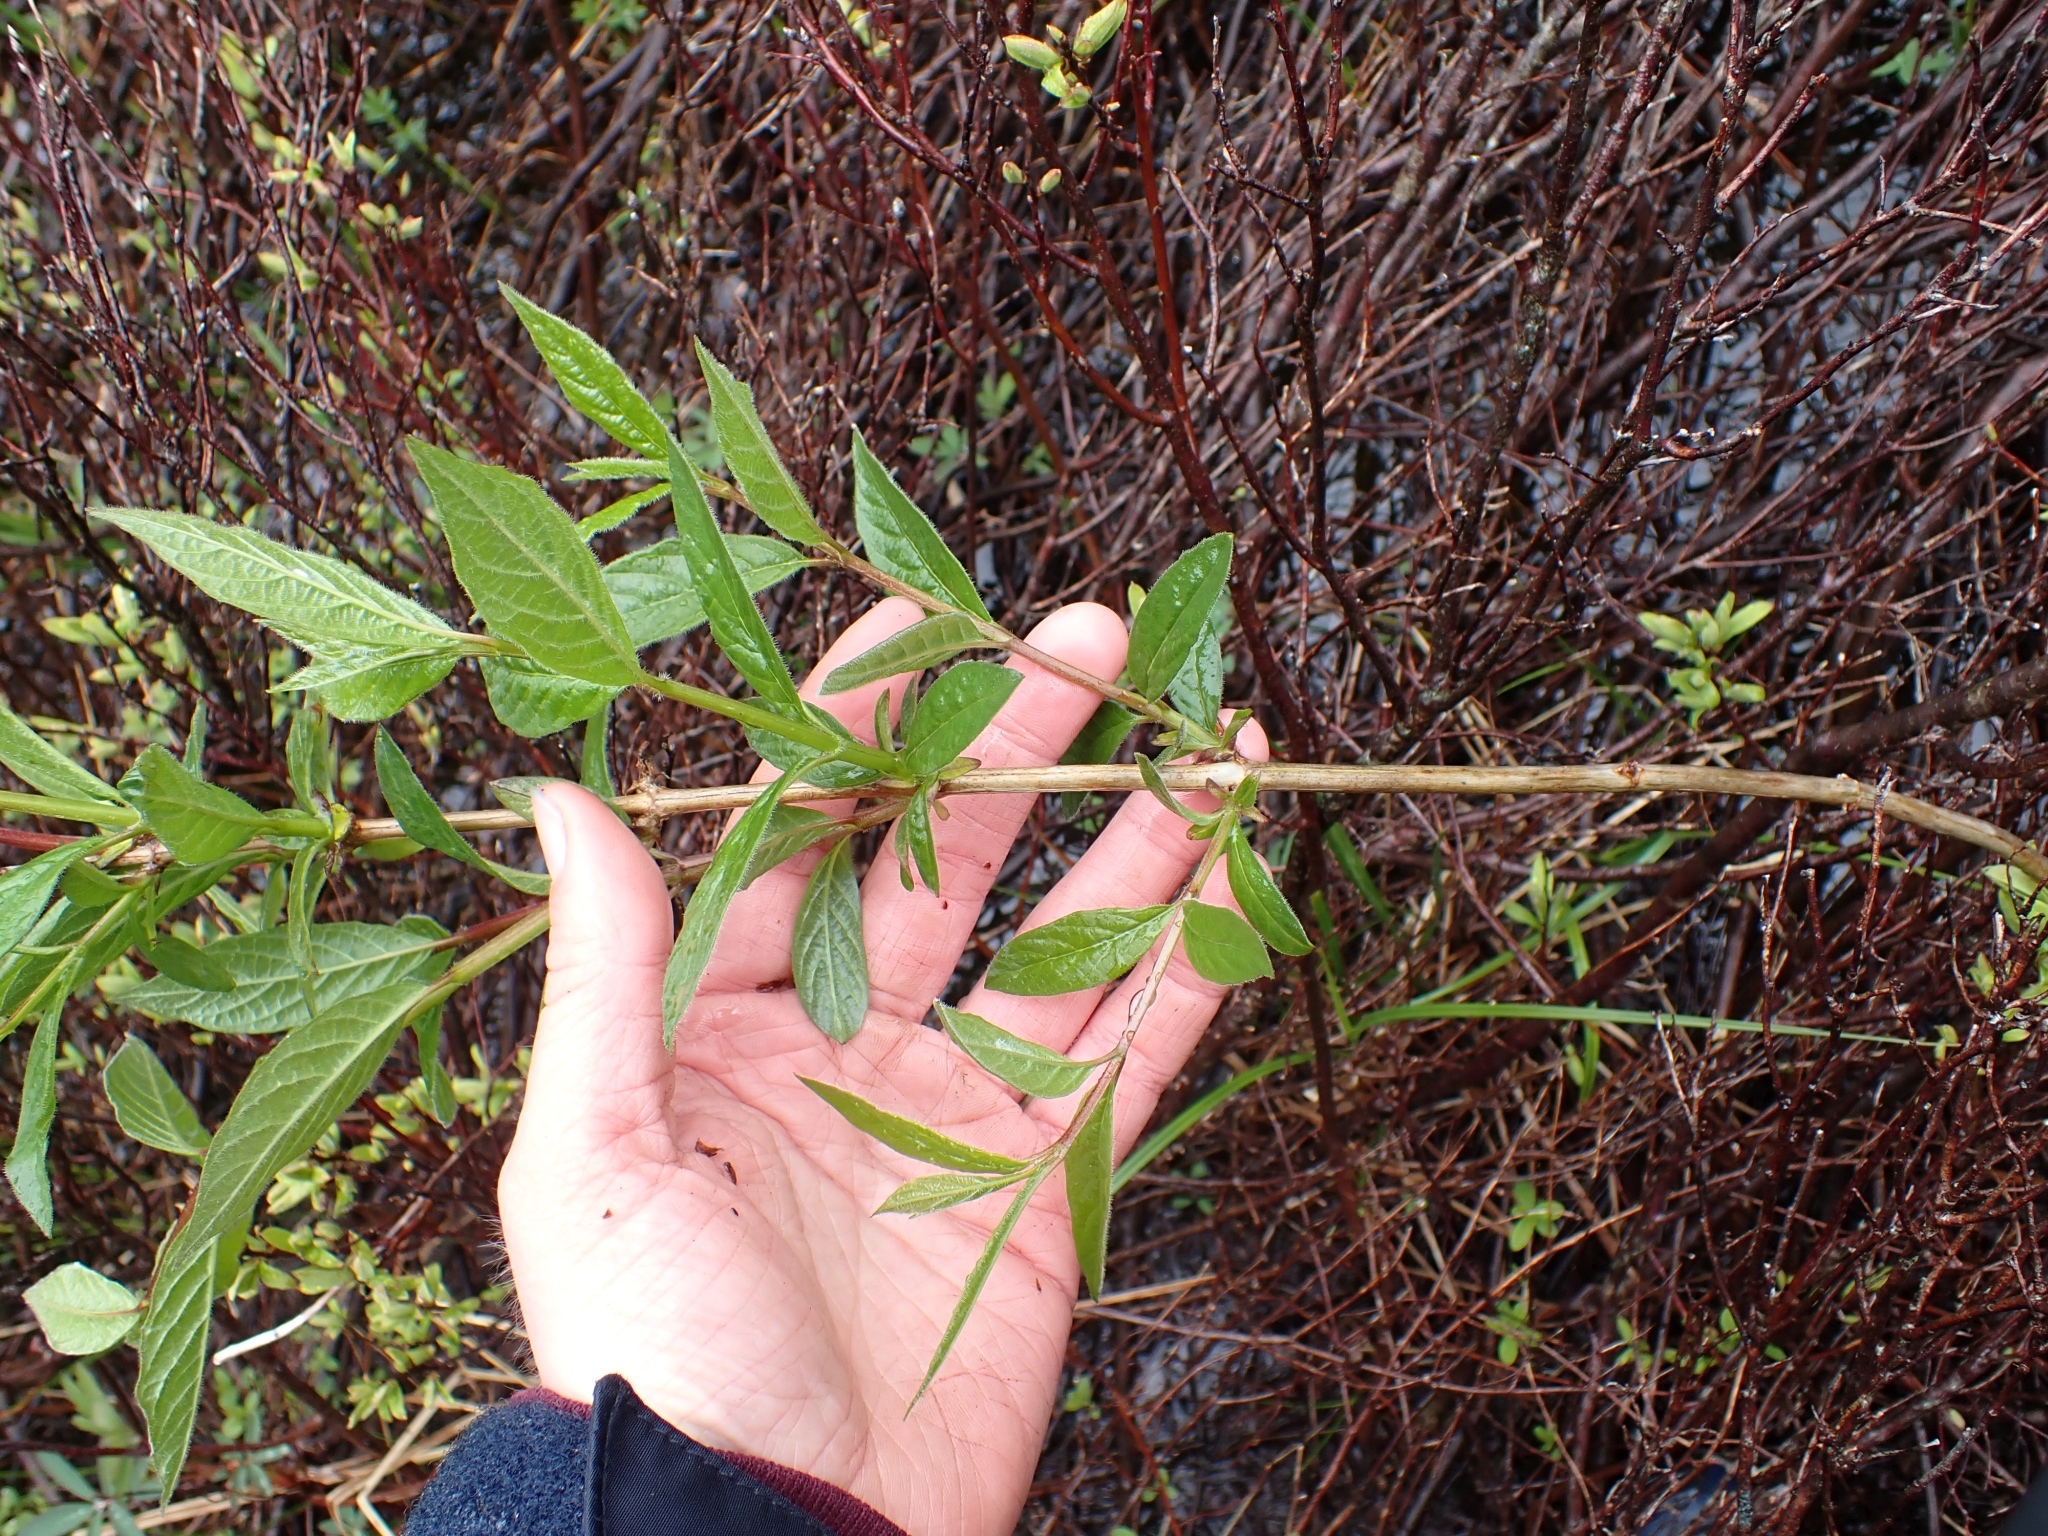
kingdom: Plantae
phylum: Tracheophyta
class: Magnoliopsida
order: Dipsacales
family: Caprifoliaceae
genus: Lonicera
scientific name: Lonicera involucrata
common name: Californian honeysuckle
